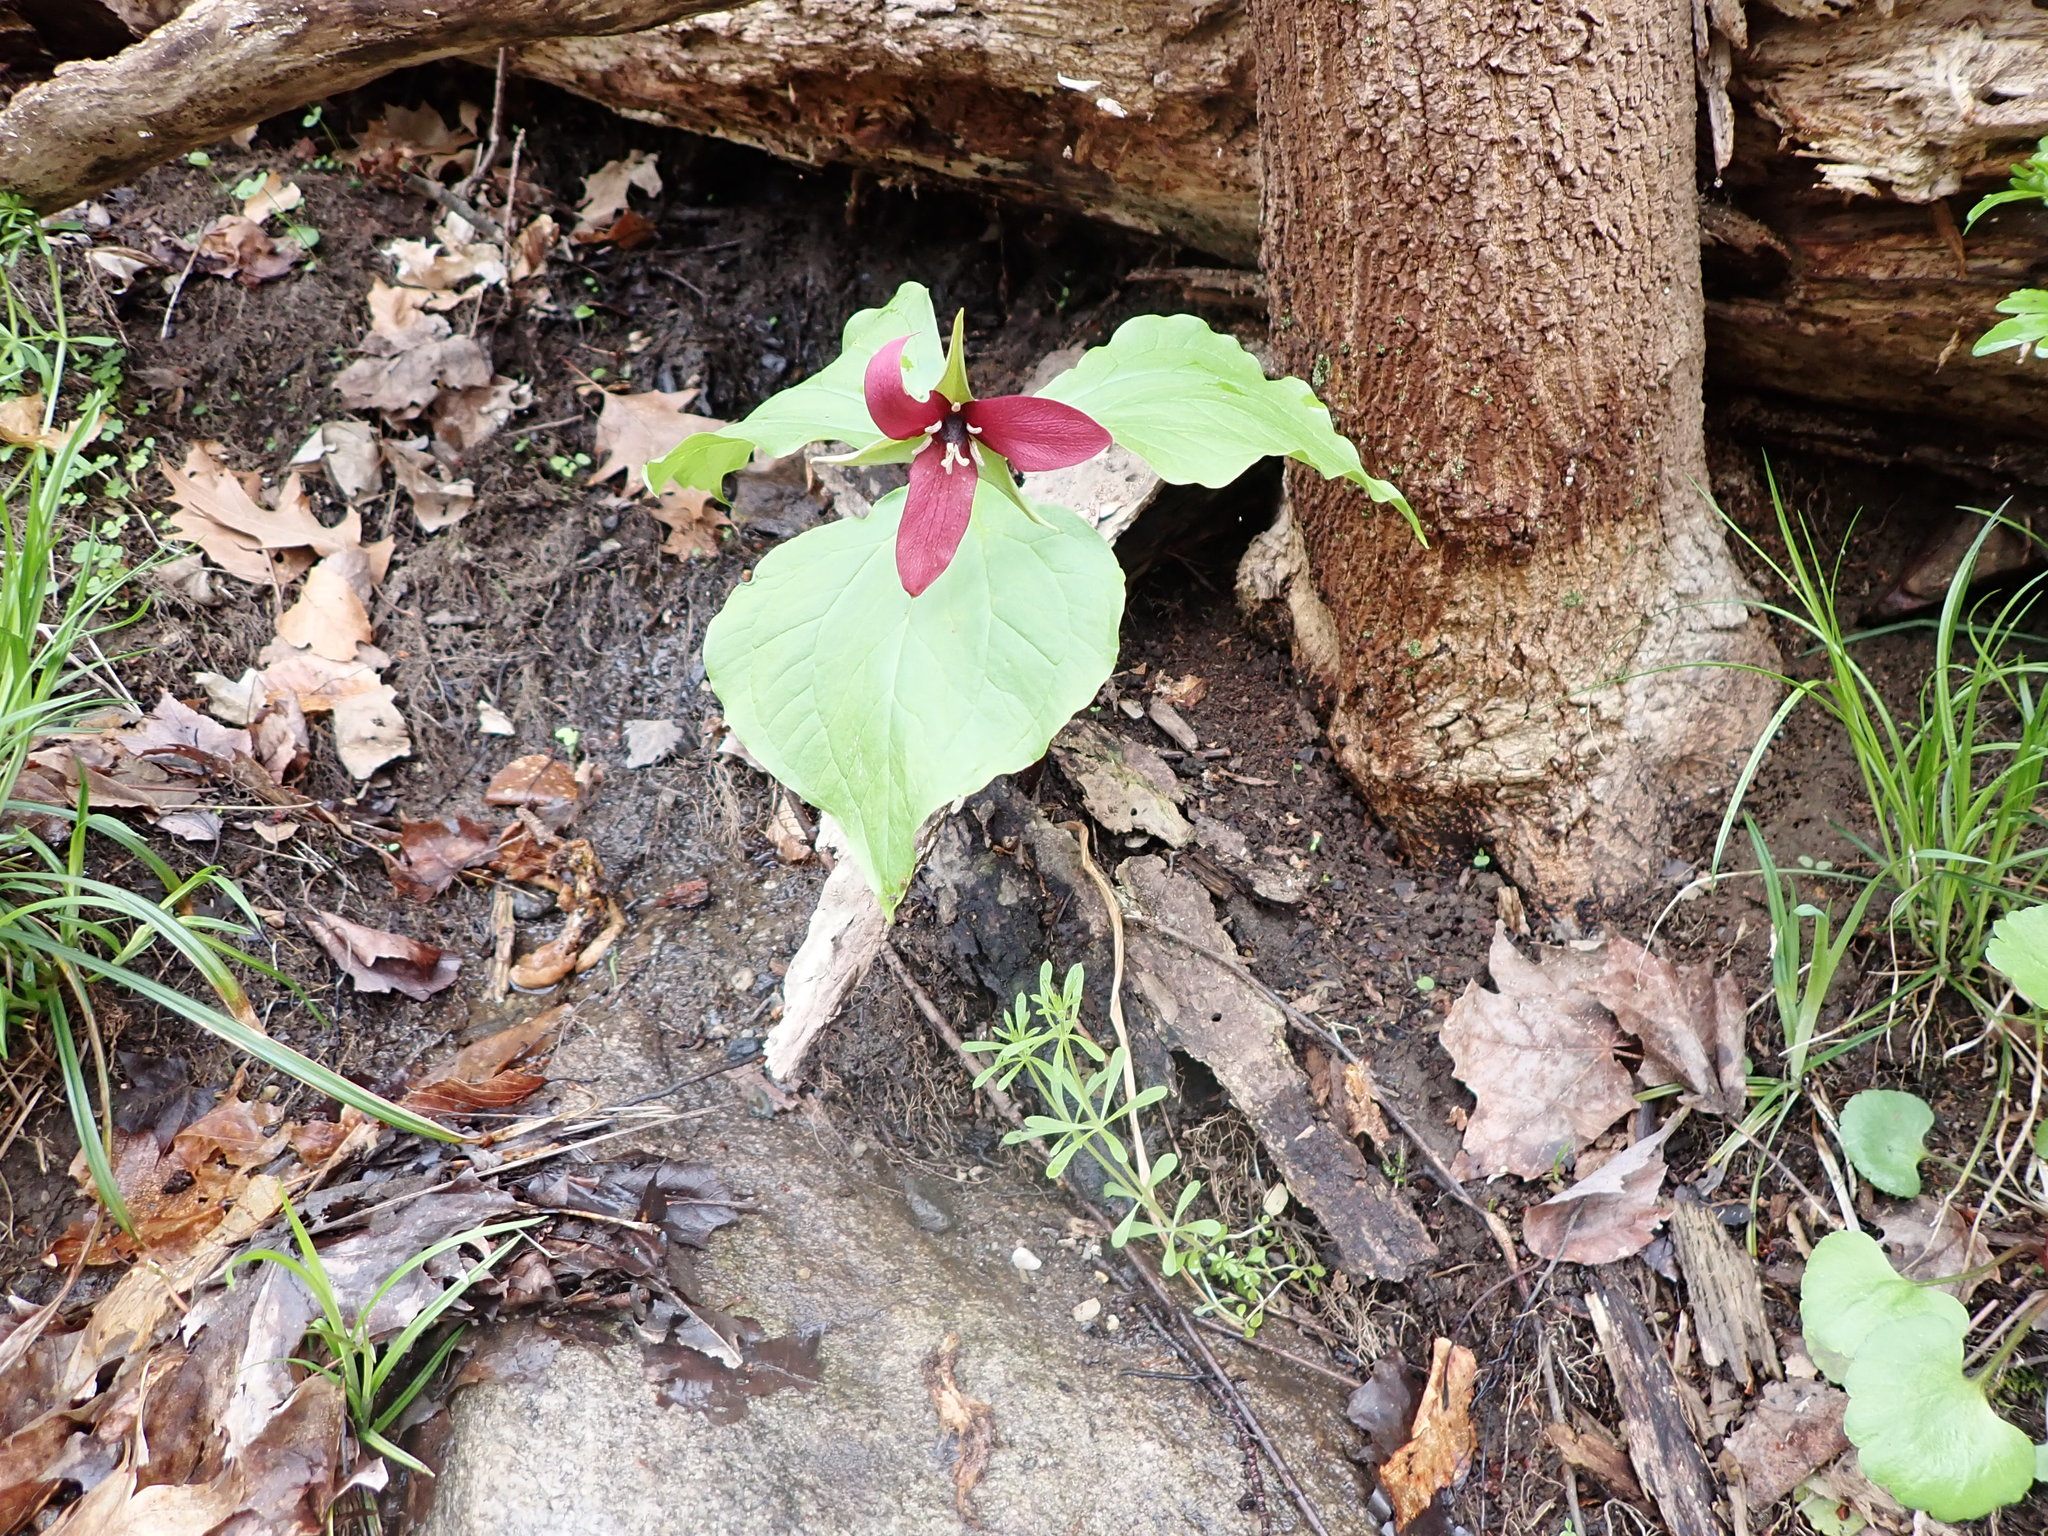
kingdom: Plantae
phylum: Tracheophyta
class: Liliopsida
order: Liliales
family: Melanthiaceae
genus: Trillium
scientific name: Trillium erectum
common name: Purple trillium
